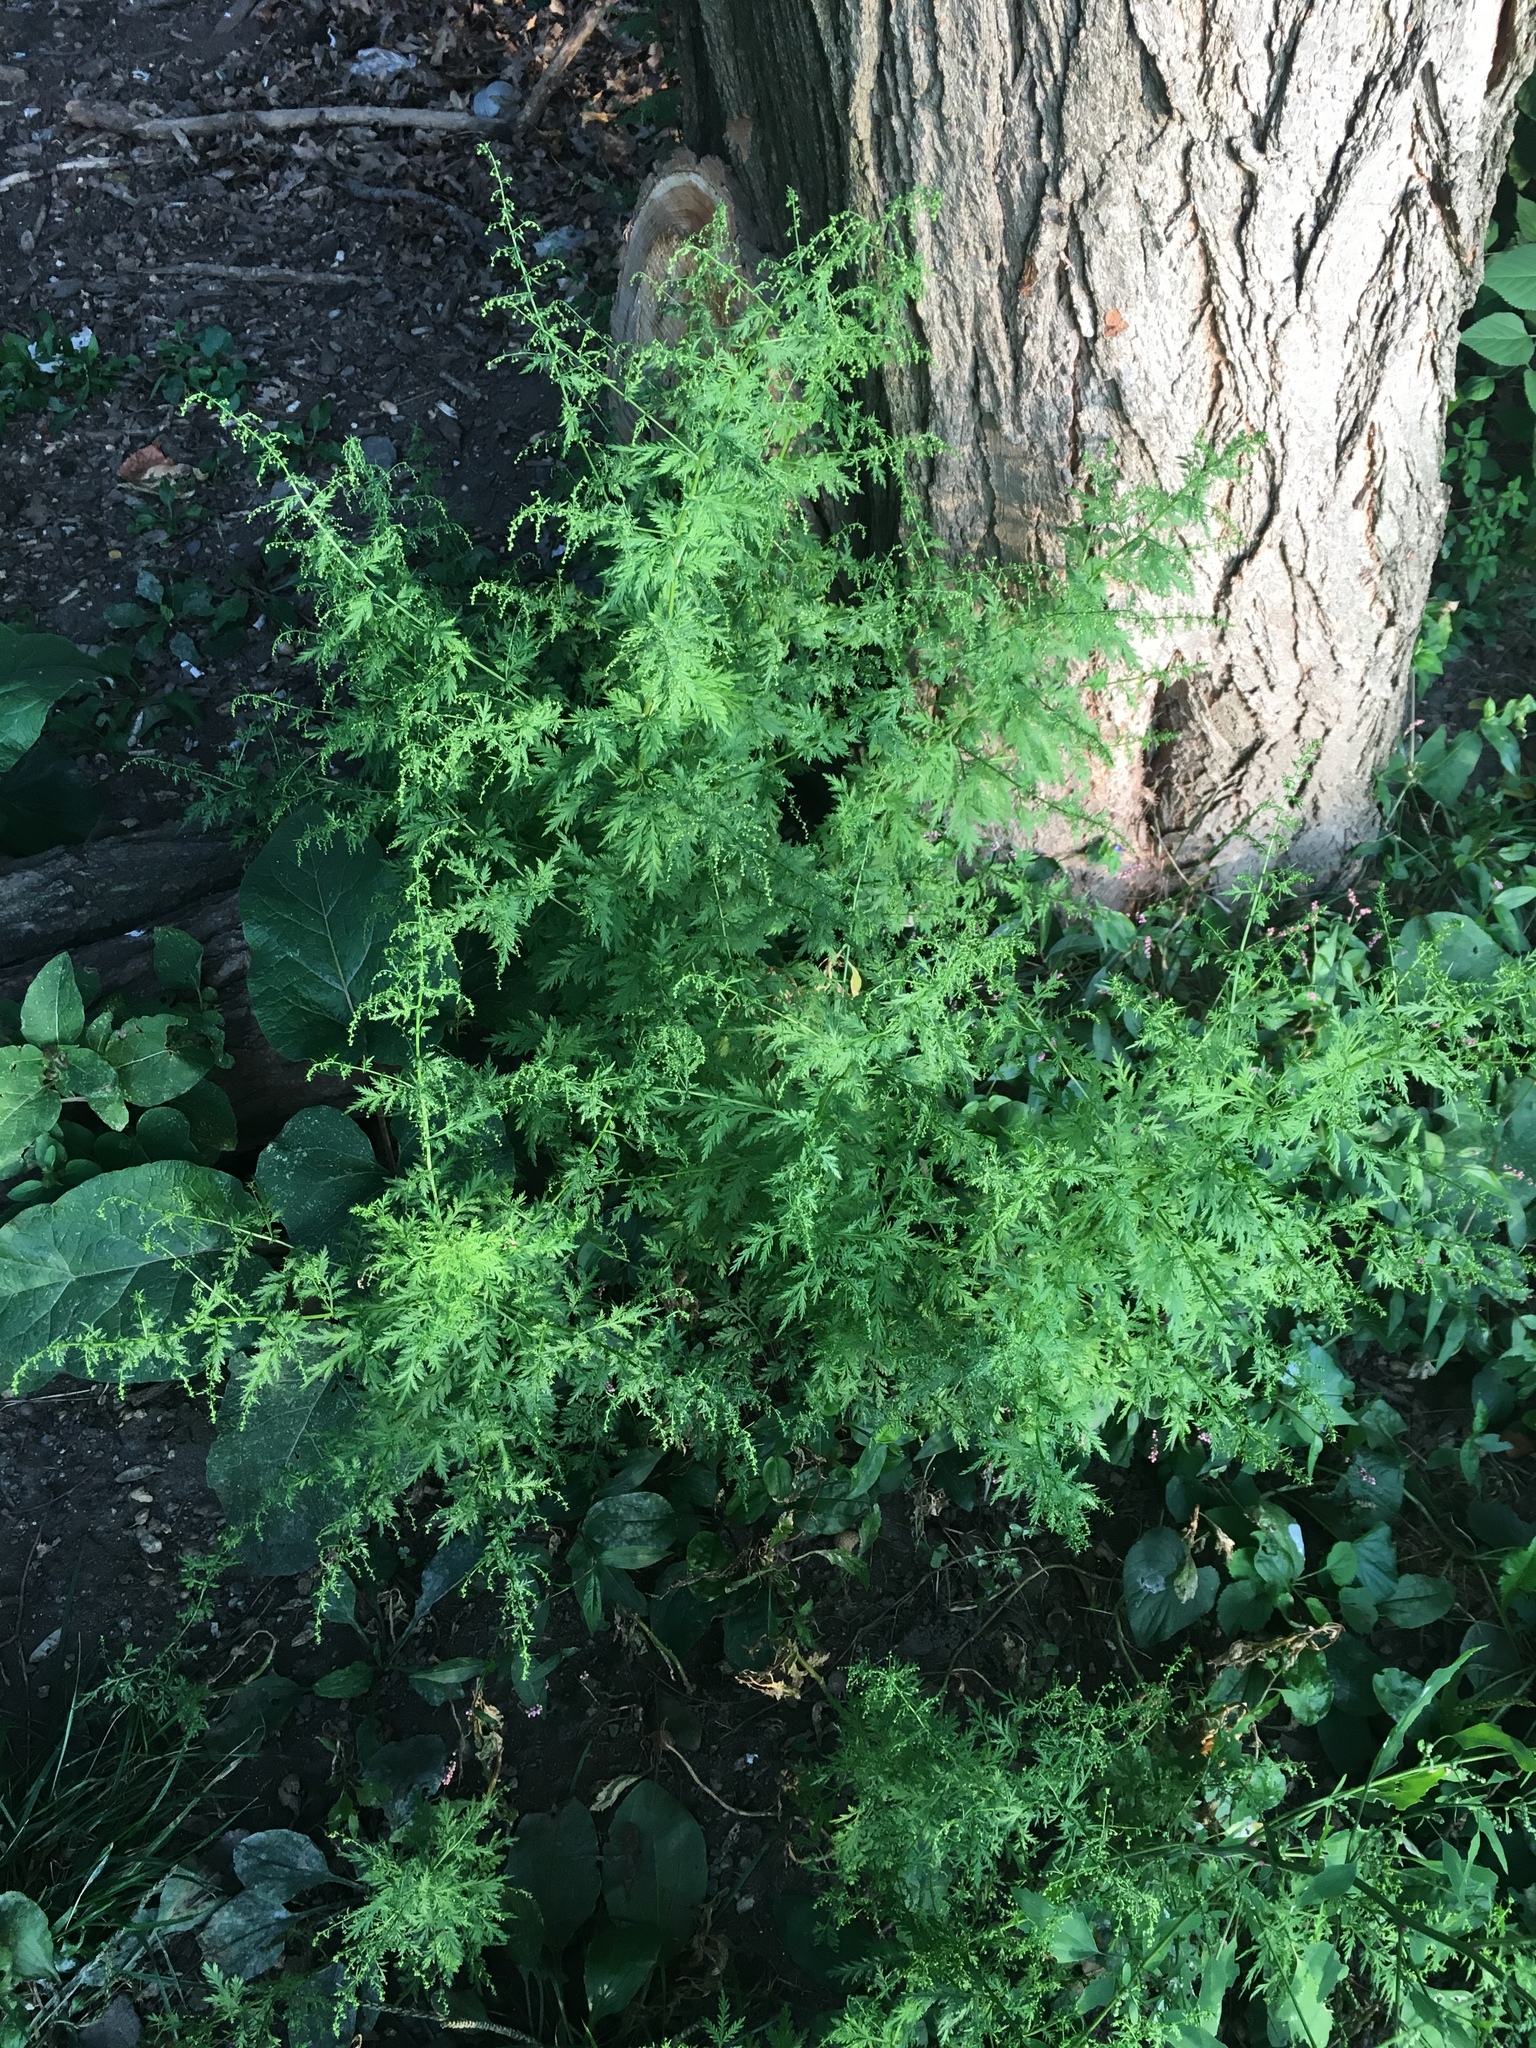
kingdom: Plantae
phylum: Tracheophyta
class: Magnoliopsida
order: Asterales
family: Asteraceae
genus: Artemisia
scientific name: Artemisia annua
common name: Sweet sagewort
